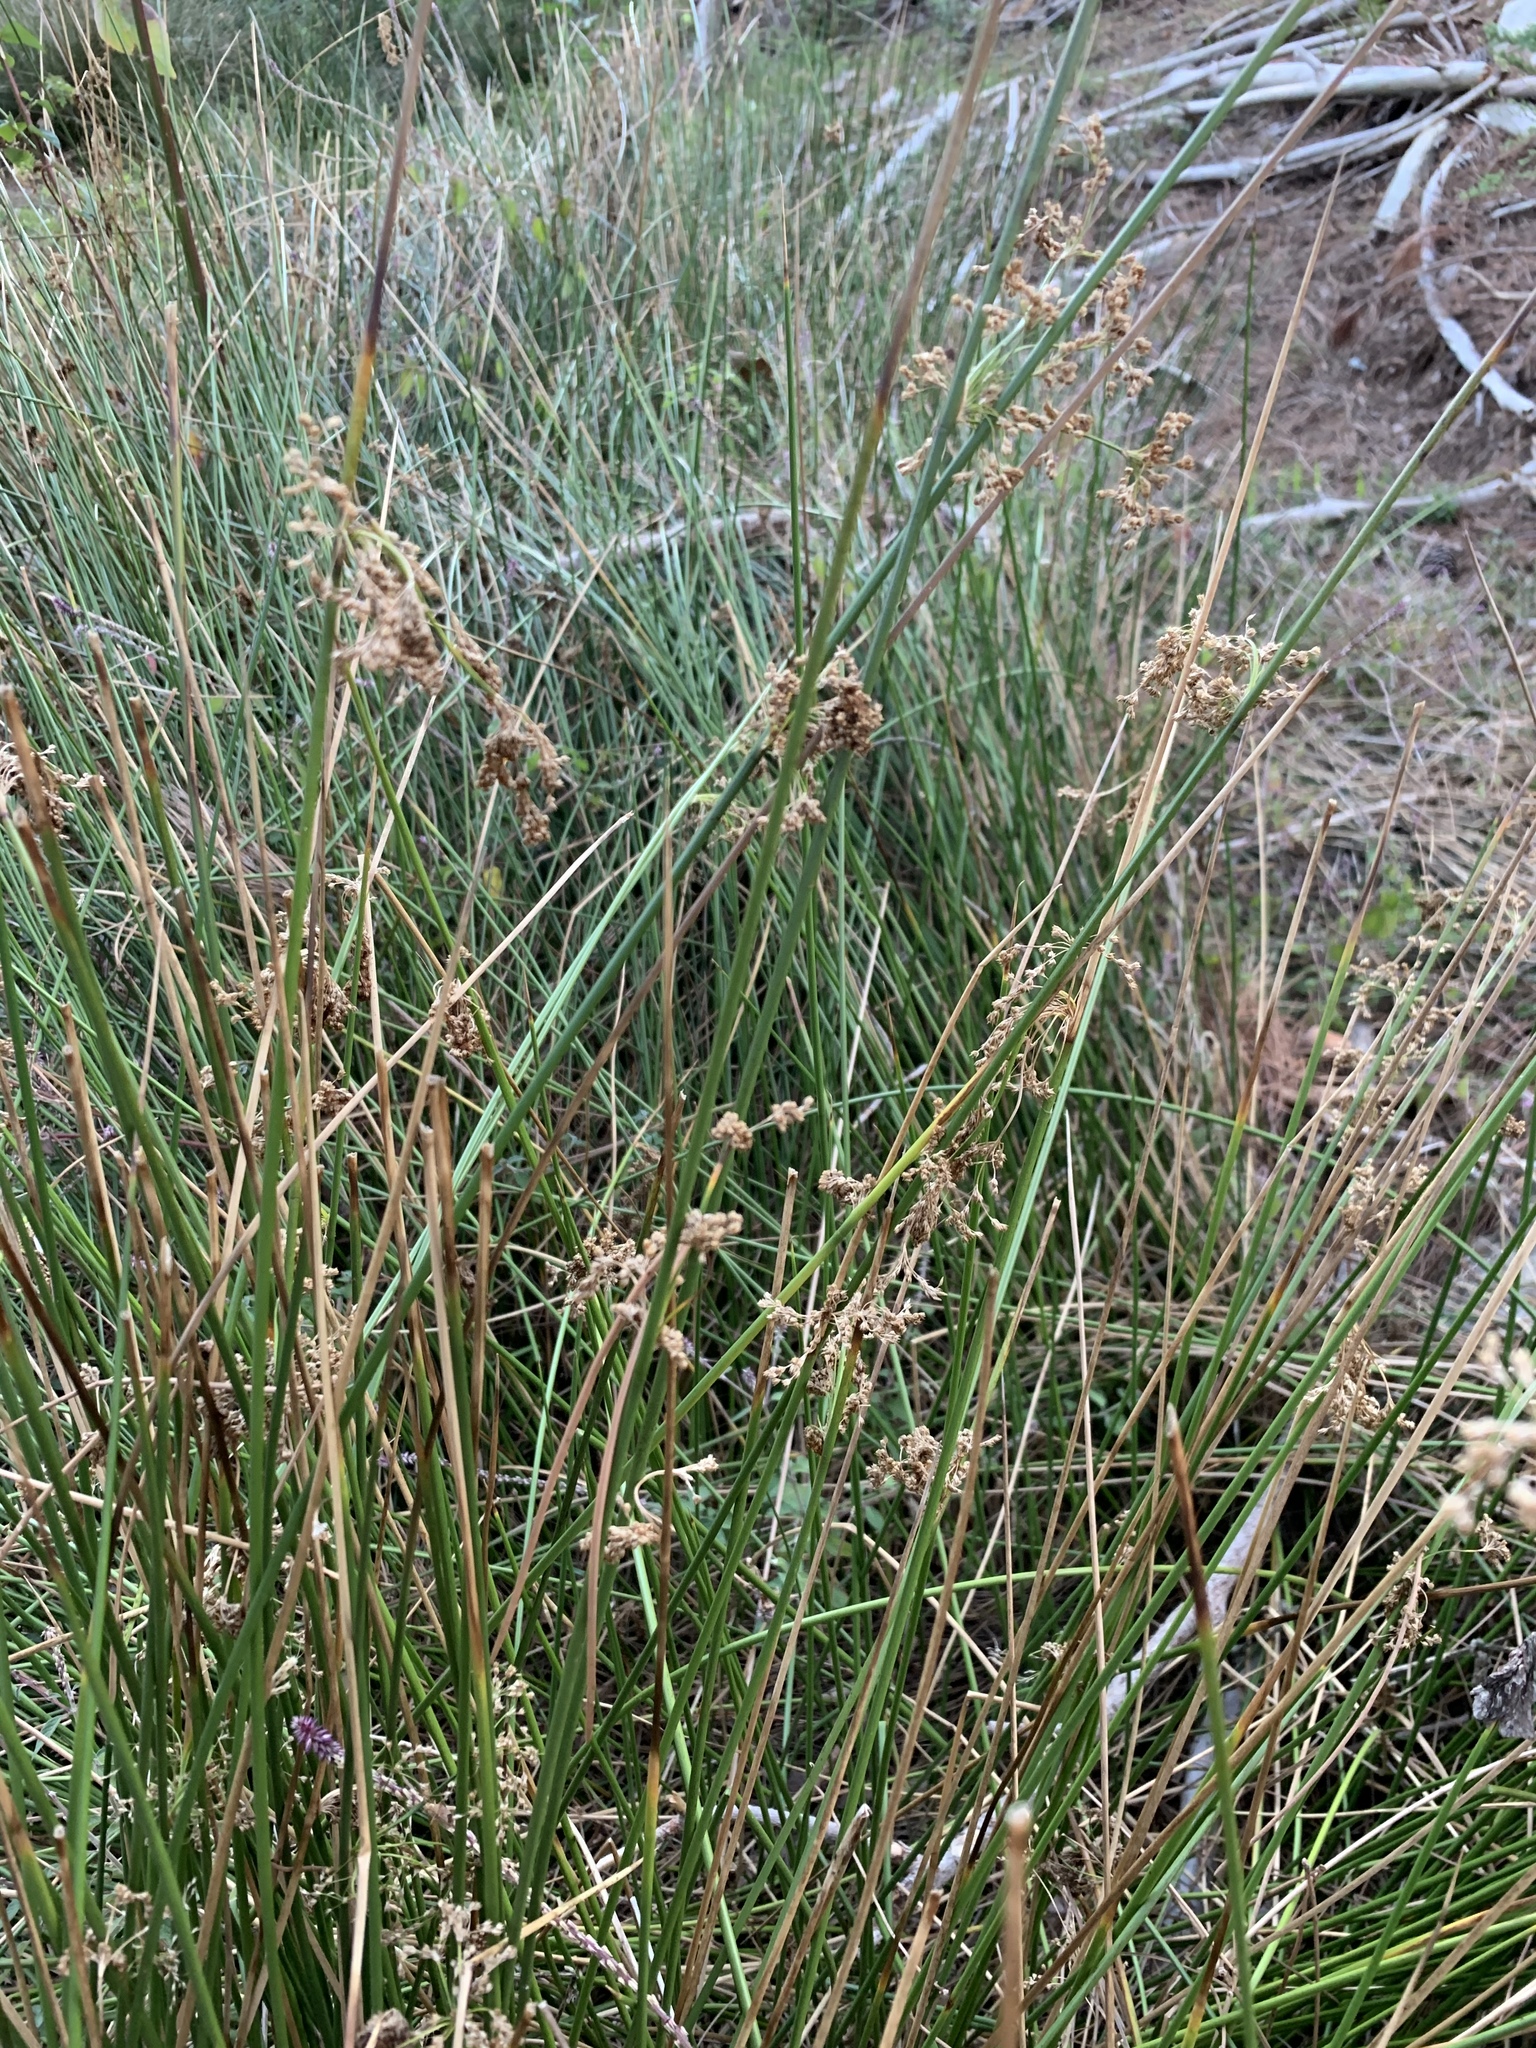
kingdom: Plantae
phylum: Tracheophyta
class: Liliopsida
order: Poales
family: Juncaceae
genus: Juncus
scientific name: Juncus effusus
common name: Soft rush
